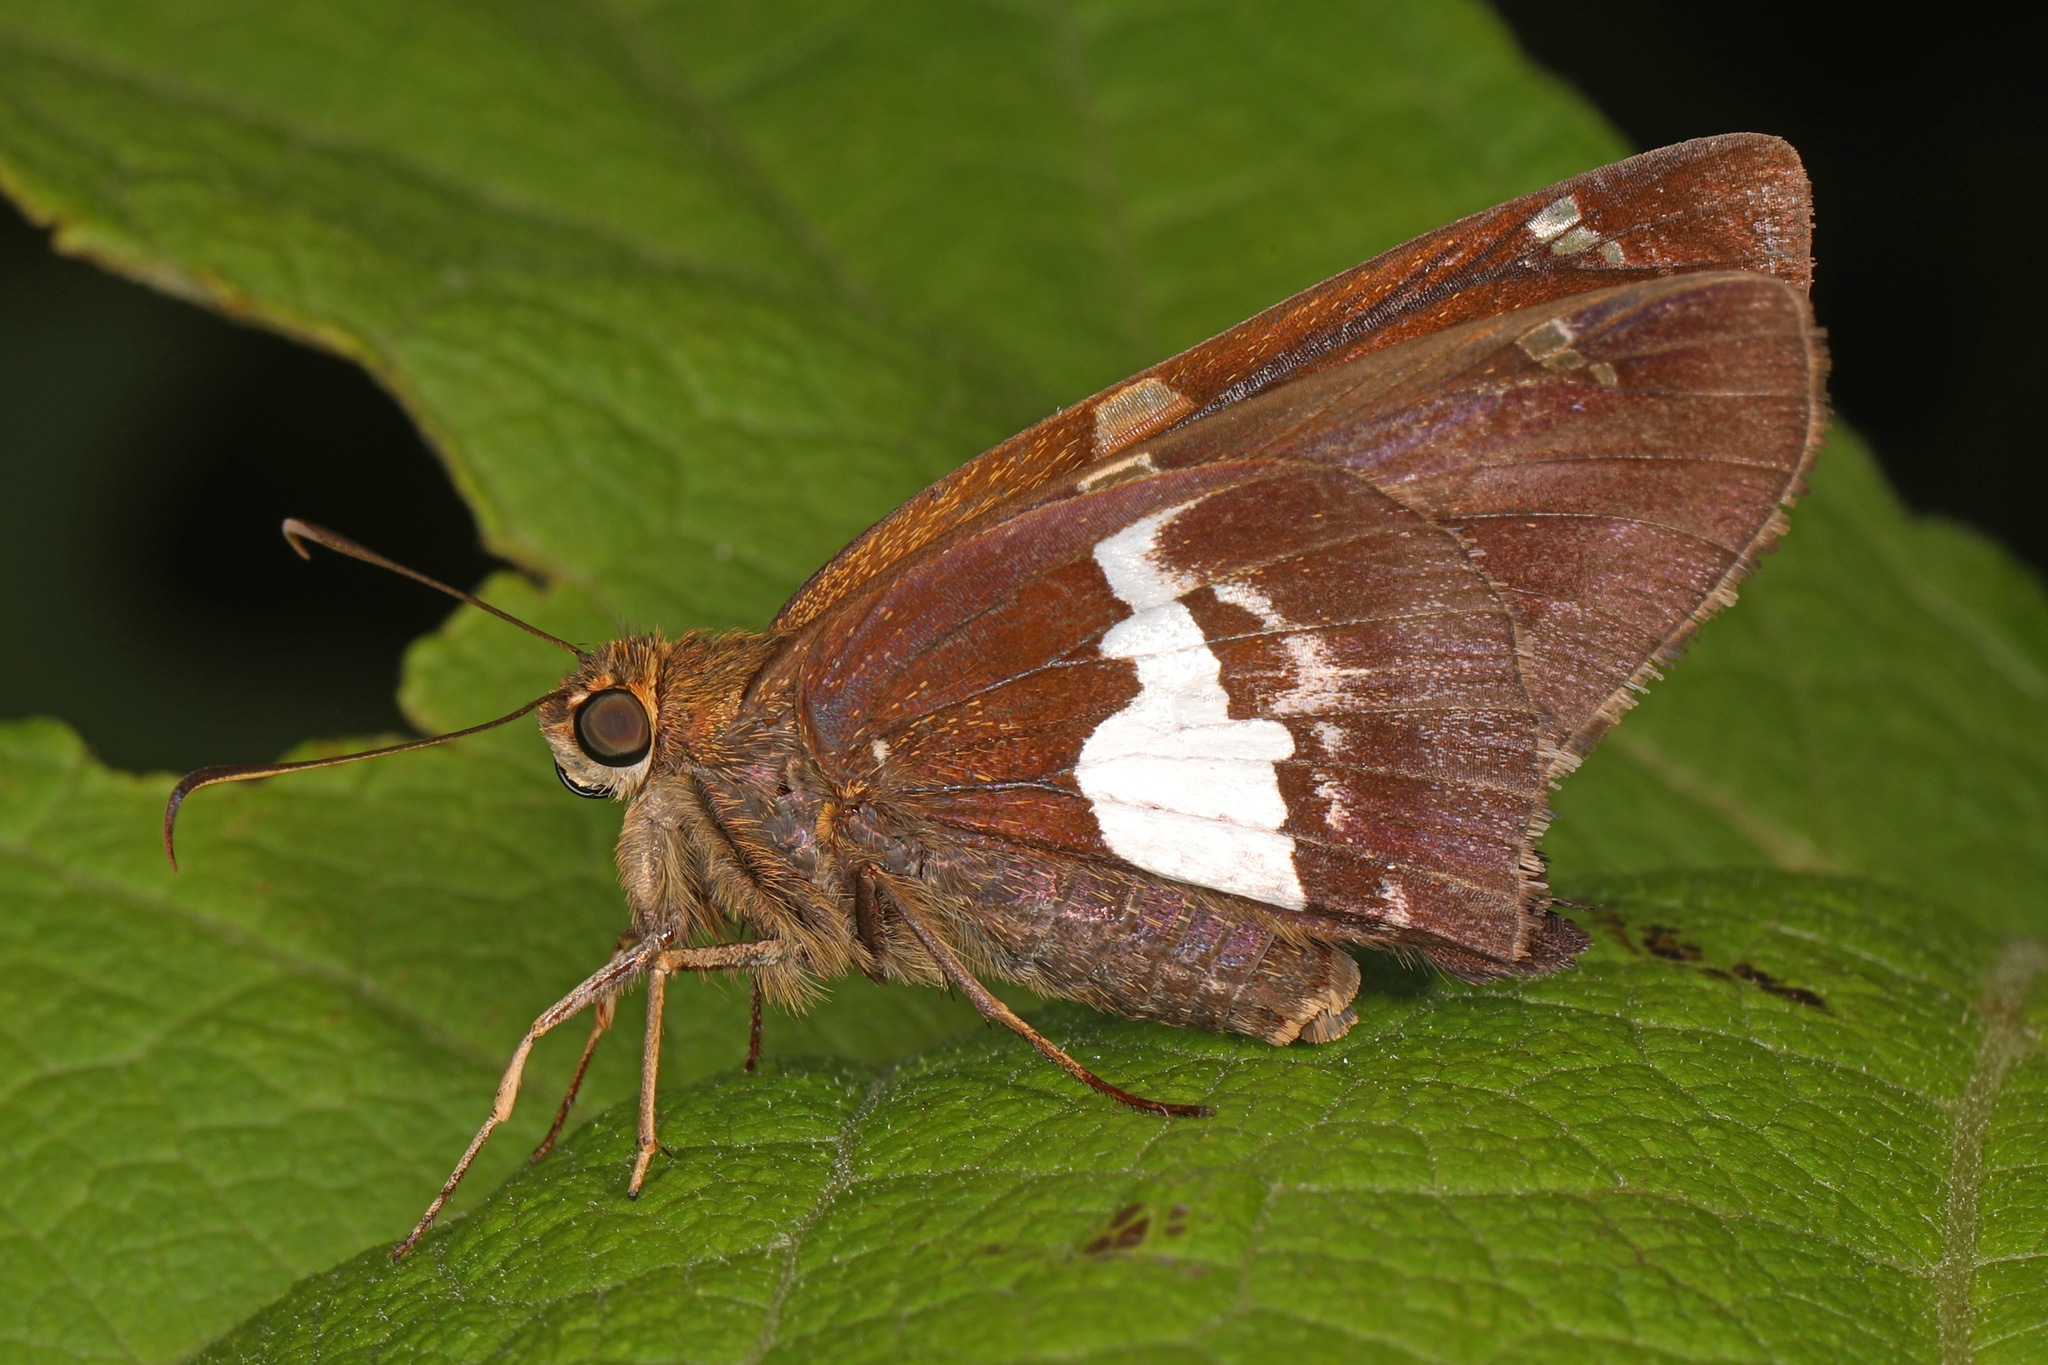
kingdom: Animalia
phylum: Arthropoda
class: Insecta
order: Lepidoptera
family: Hesperiidae
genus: Epargyreus
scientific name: Epargyreus clarus
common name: Silver-spotted skipper
